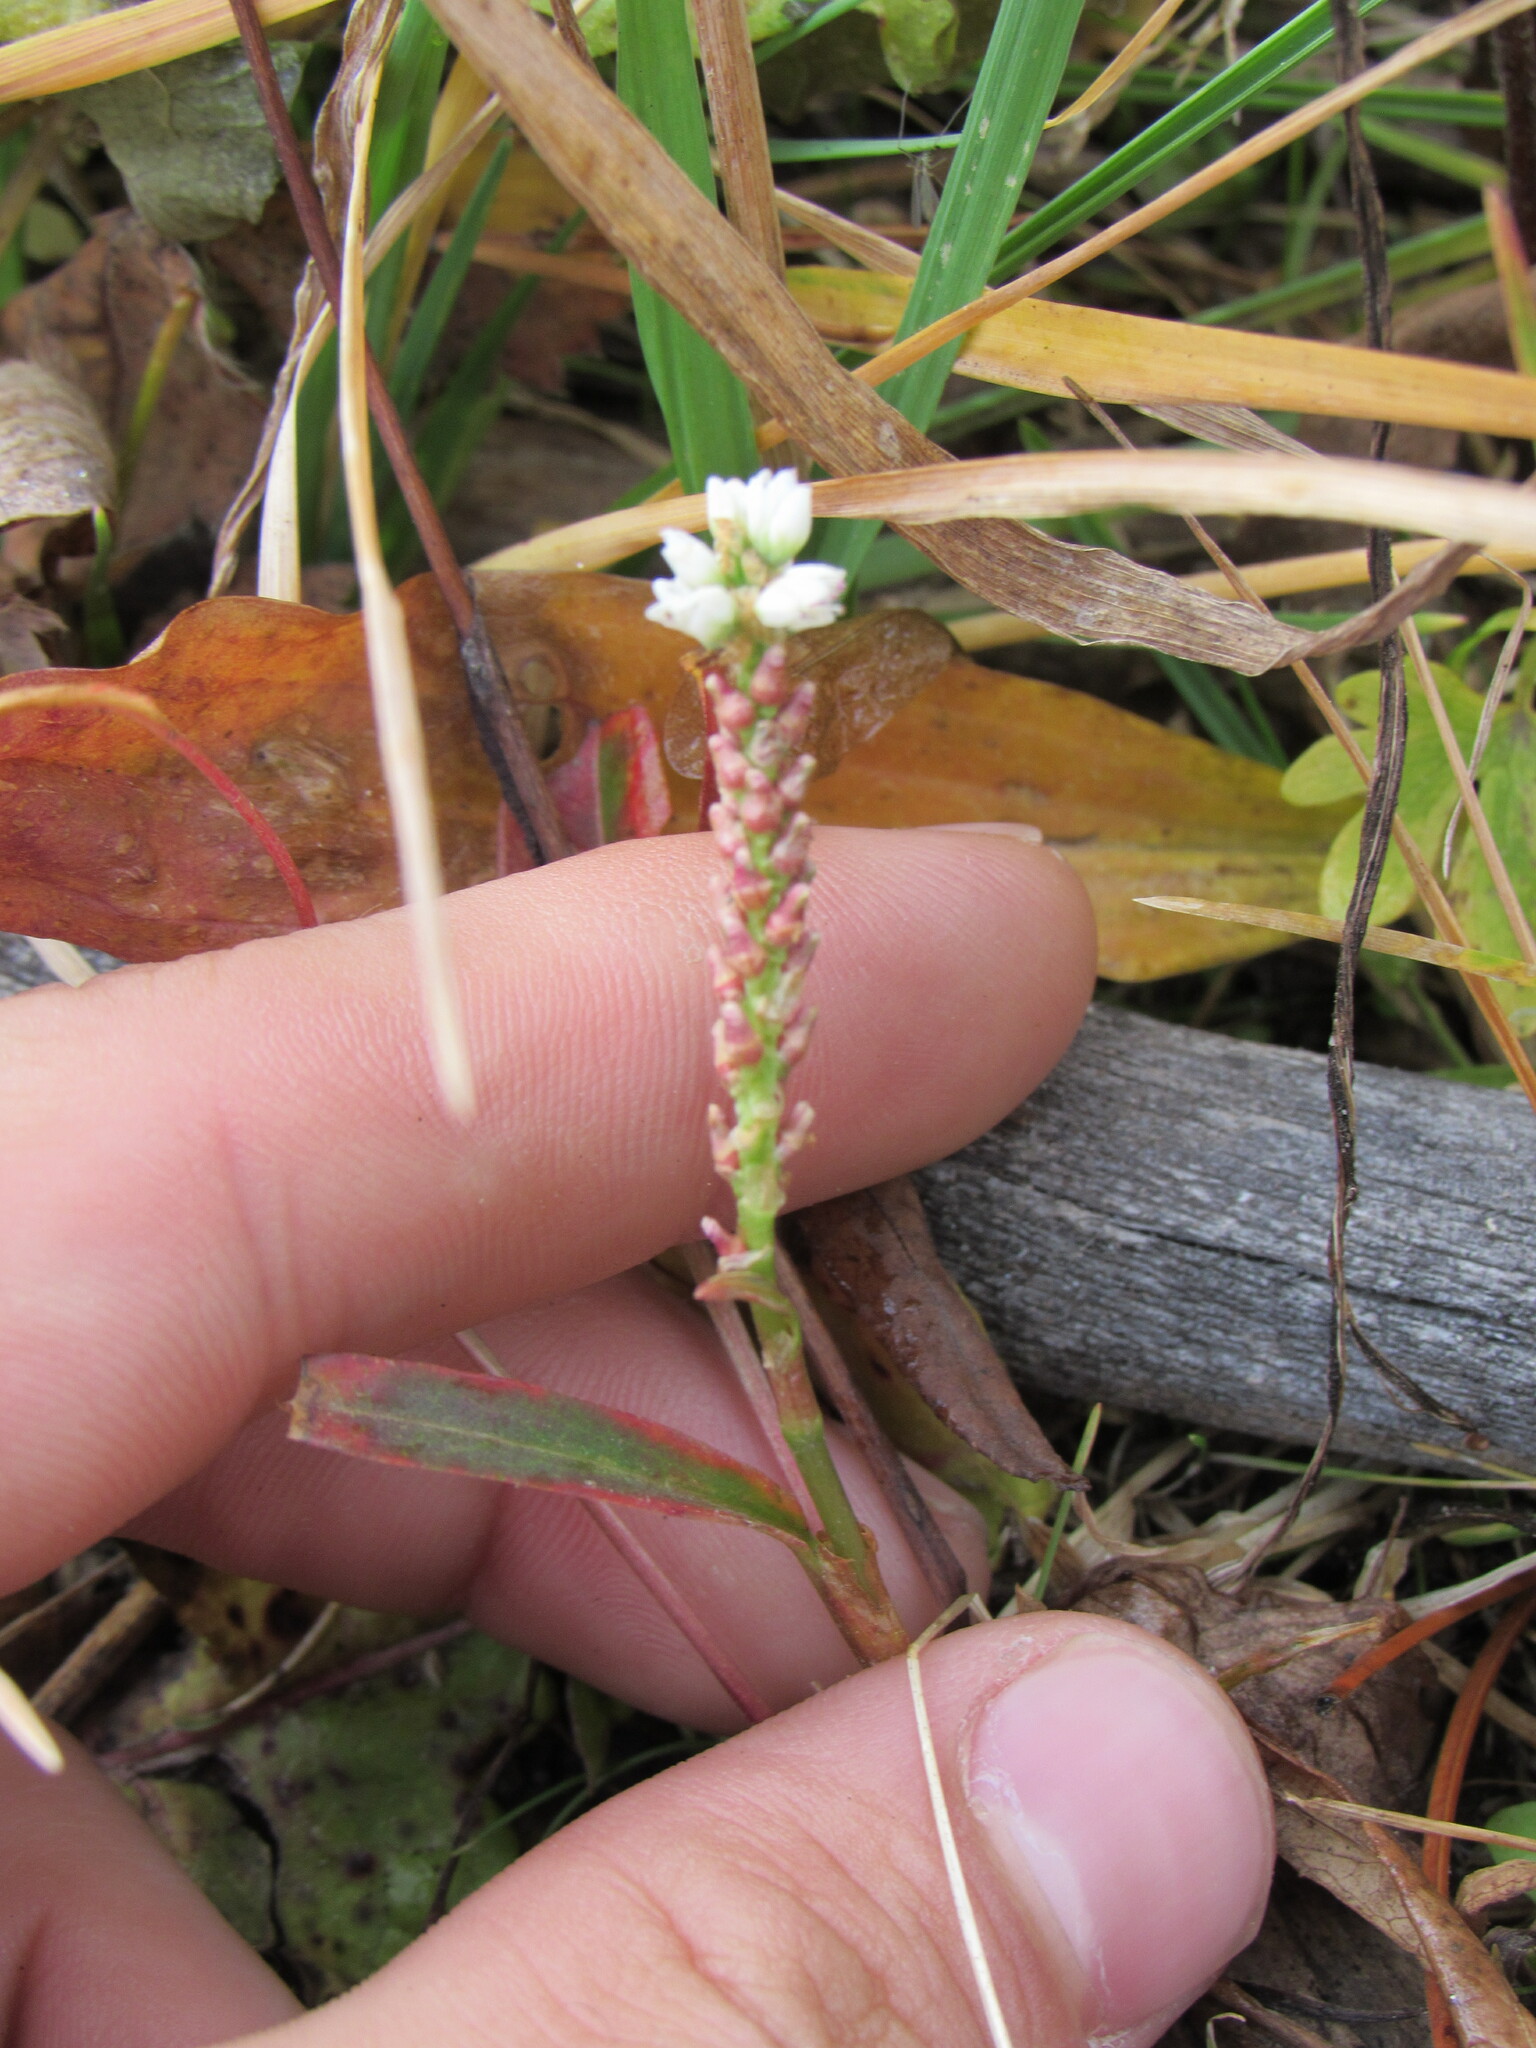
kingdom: Plantae
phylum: Tracheophyta
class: Magnoliopsida
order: Caryophyllales
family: Polygonaceae
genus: Bistorta
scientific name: Bistorta vivipara
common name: Alpine bistort
